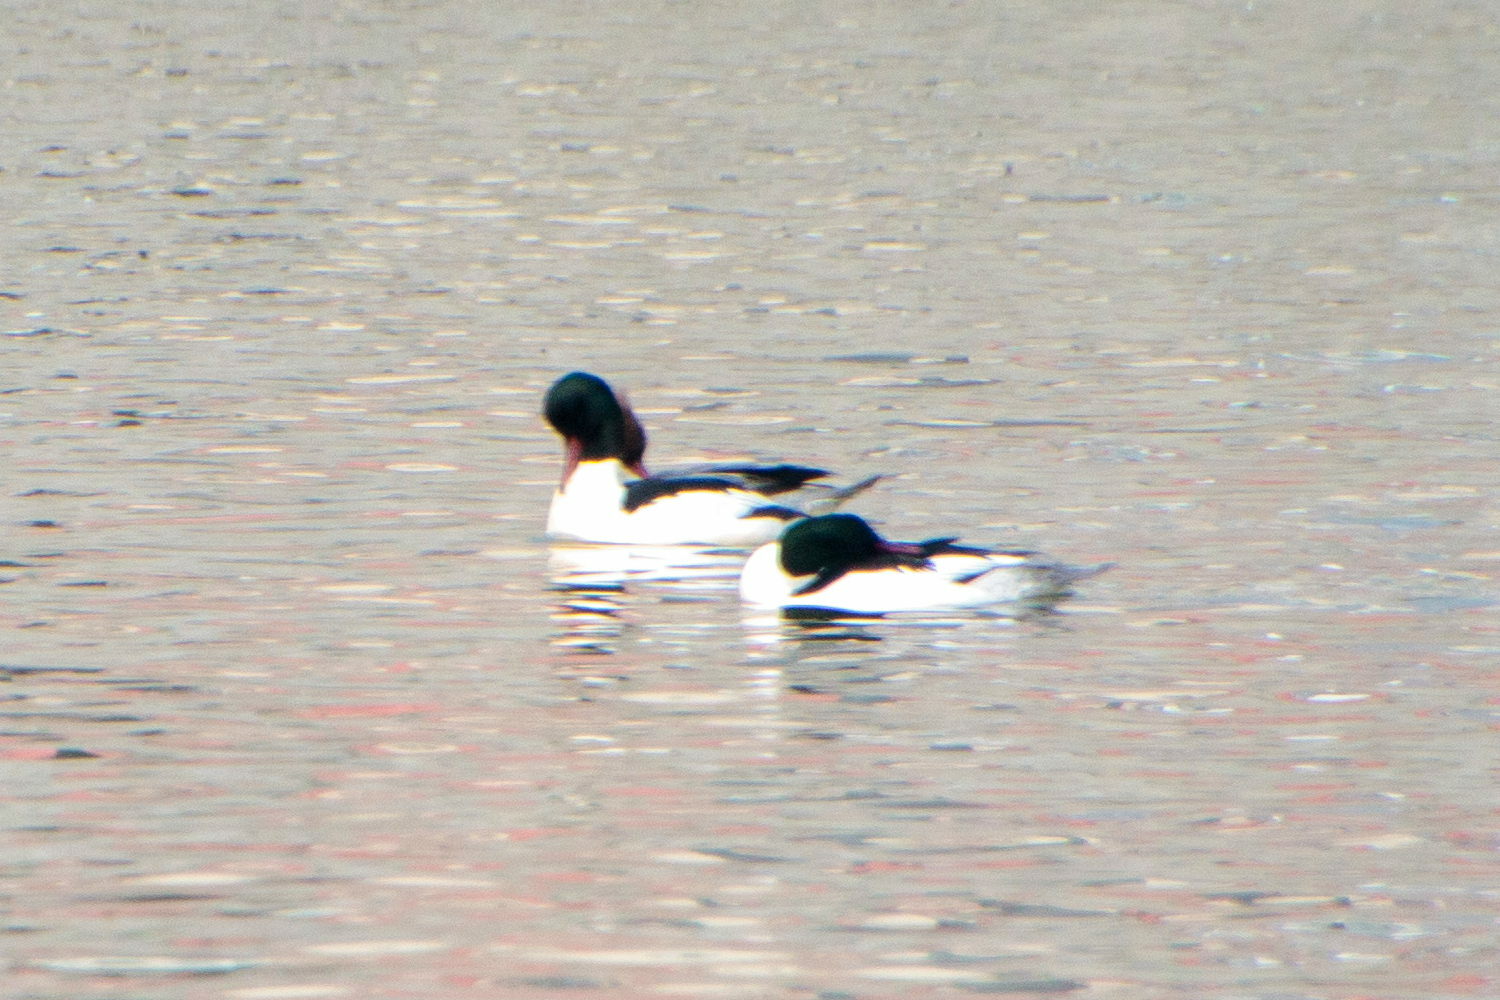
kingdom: Animalia
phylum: Chordata
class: Aves
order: Anseriformes
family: Anatidae
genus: Mergus
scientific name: Mergus merganser
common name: Common merganser
